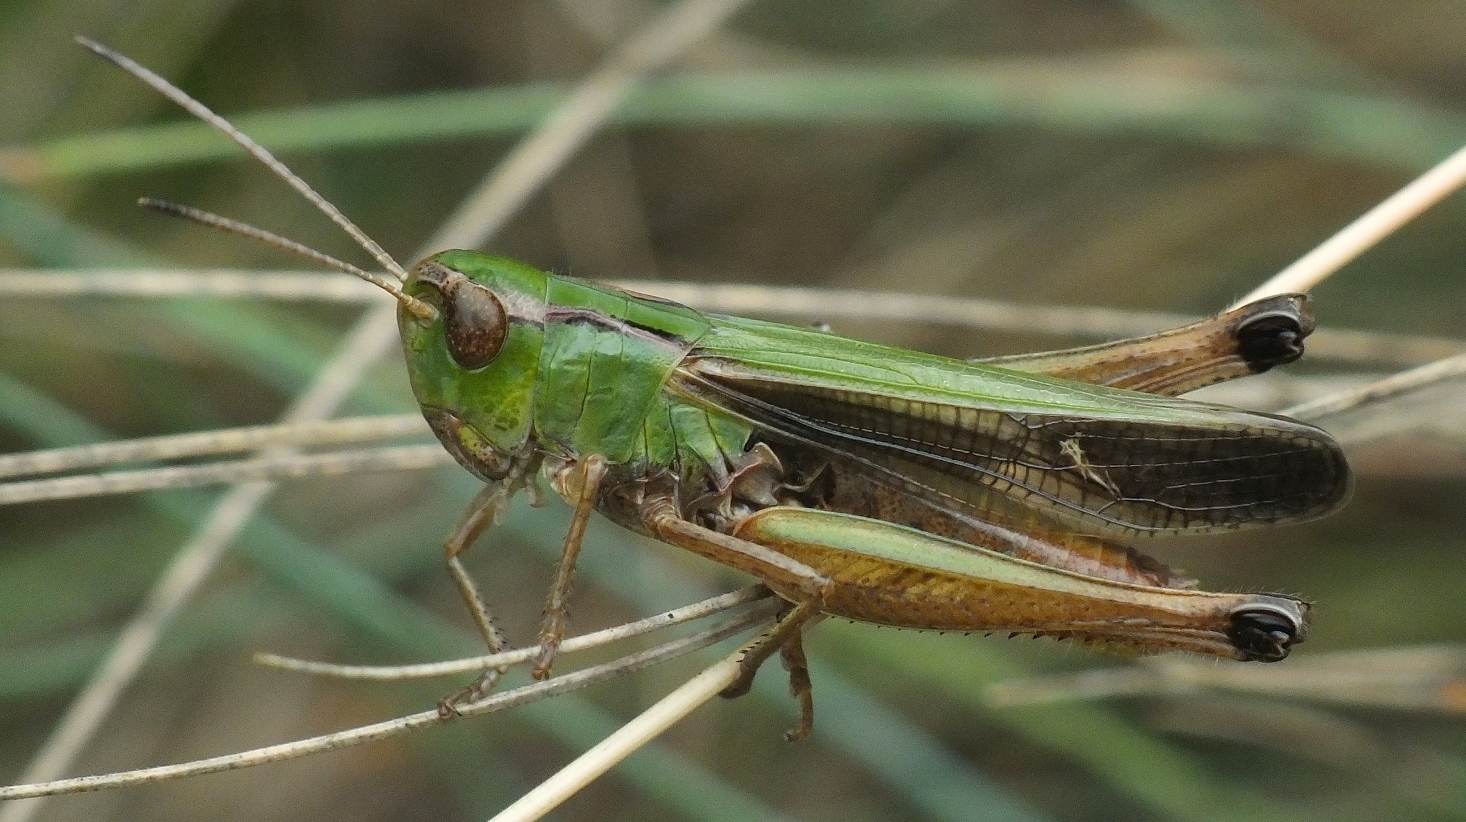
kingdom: Animalia
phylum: Arthropoda
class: Insecta
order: Orthoptera
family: Acrididae
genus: Stenobothrus
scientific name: Stenobothrus lineatus
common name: Stripe-winged grasshopper
